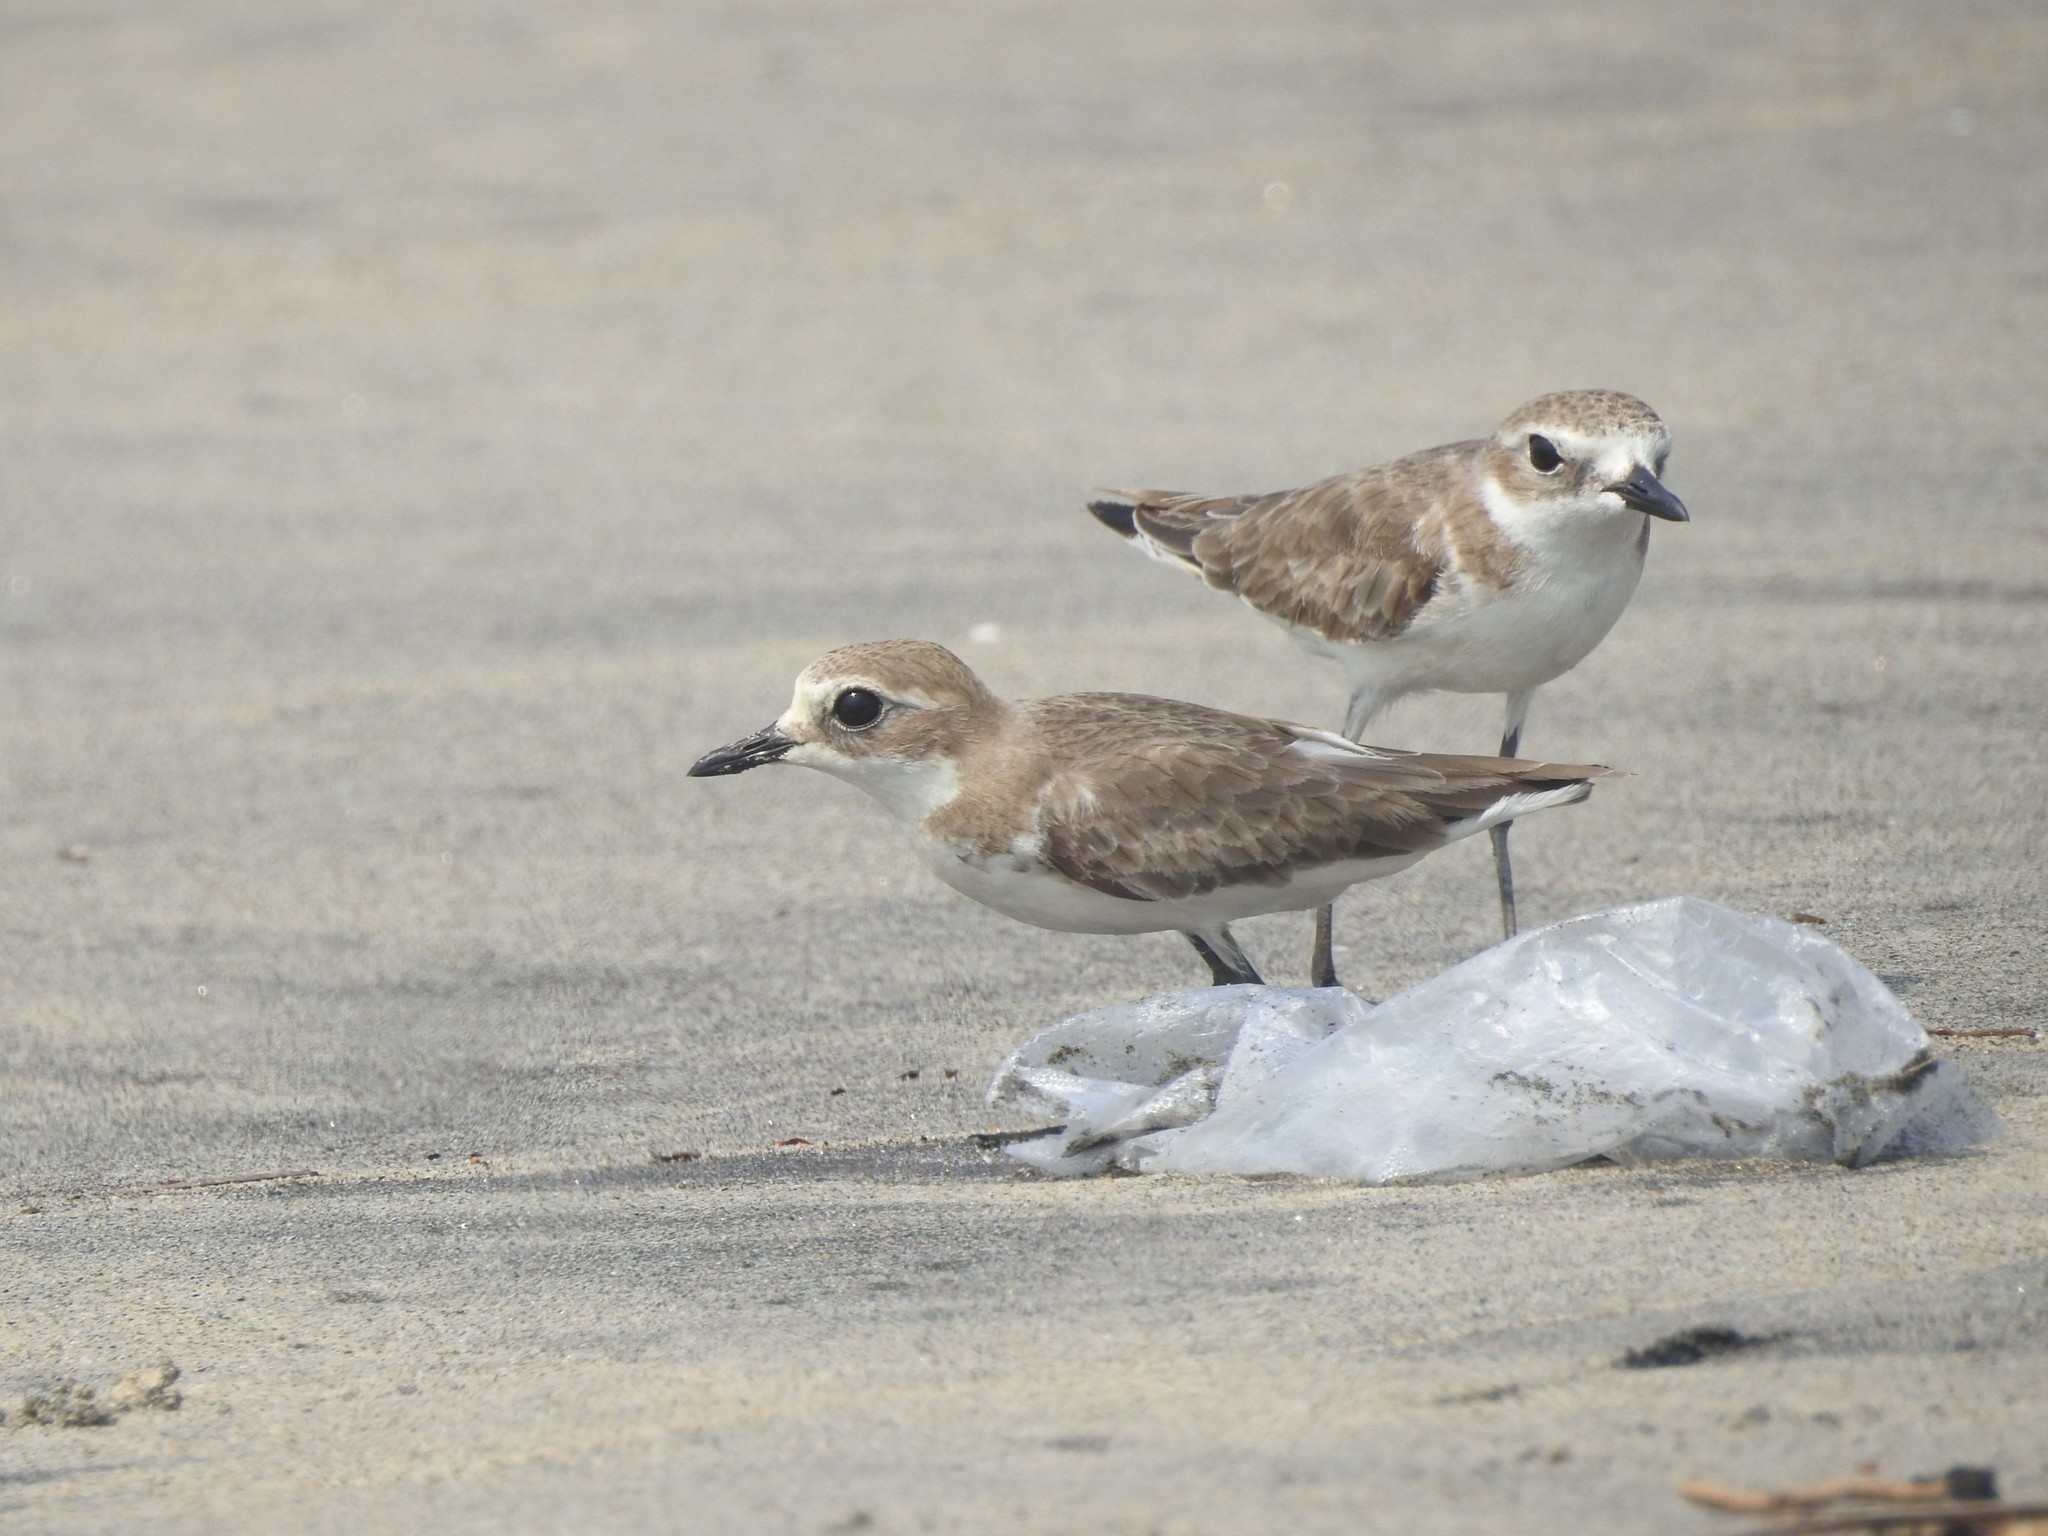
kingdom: Animalia
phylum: Chordata
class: Aves
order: Charadriiformes
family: Charadriidae
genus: Anarhynchus
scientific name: Anarhynchus
